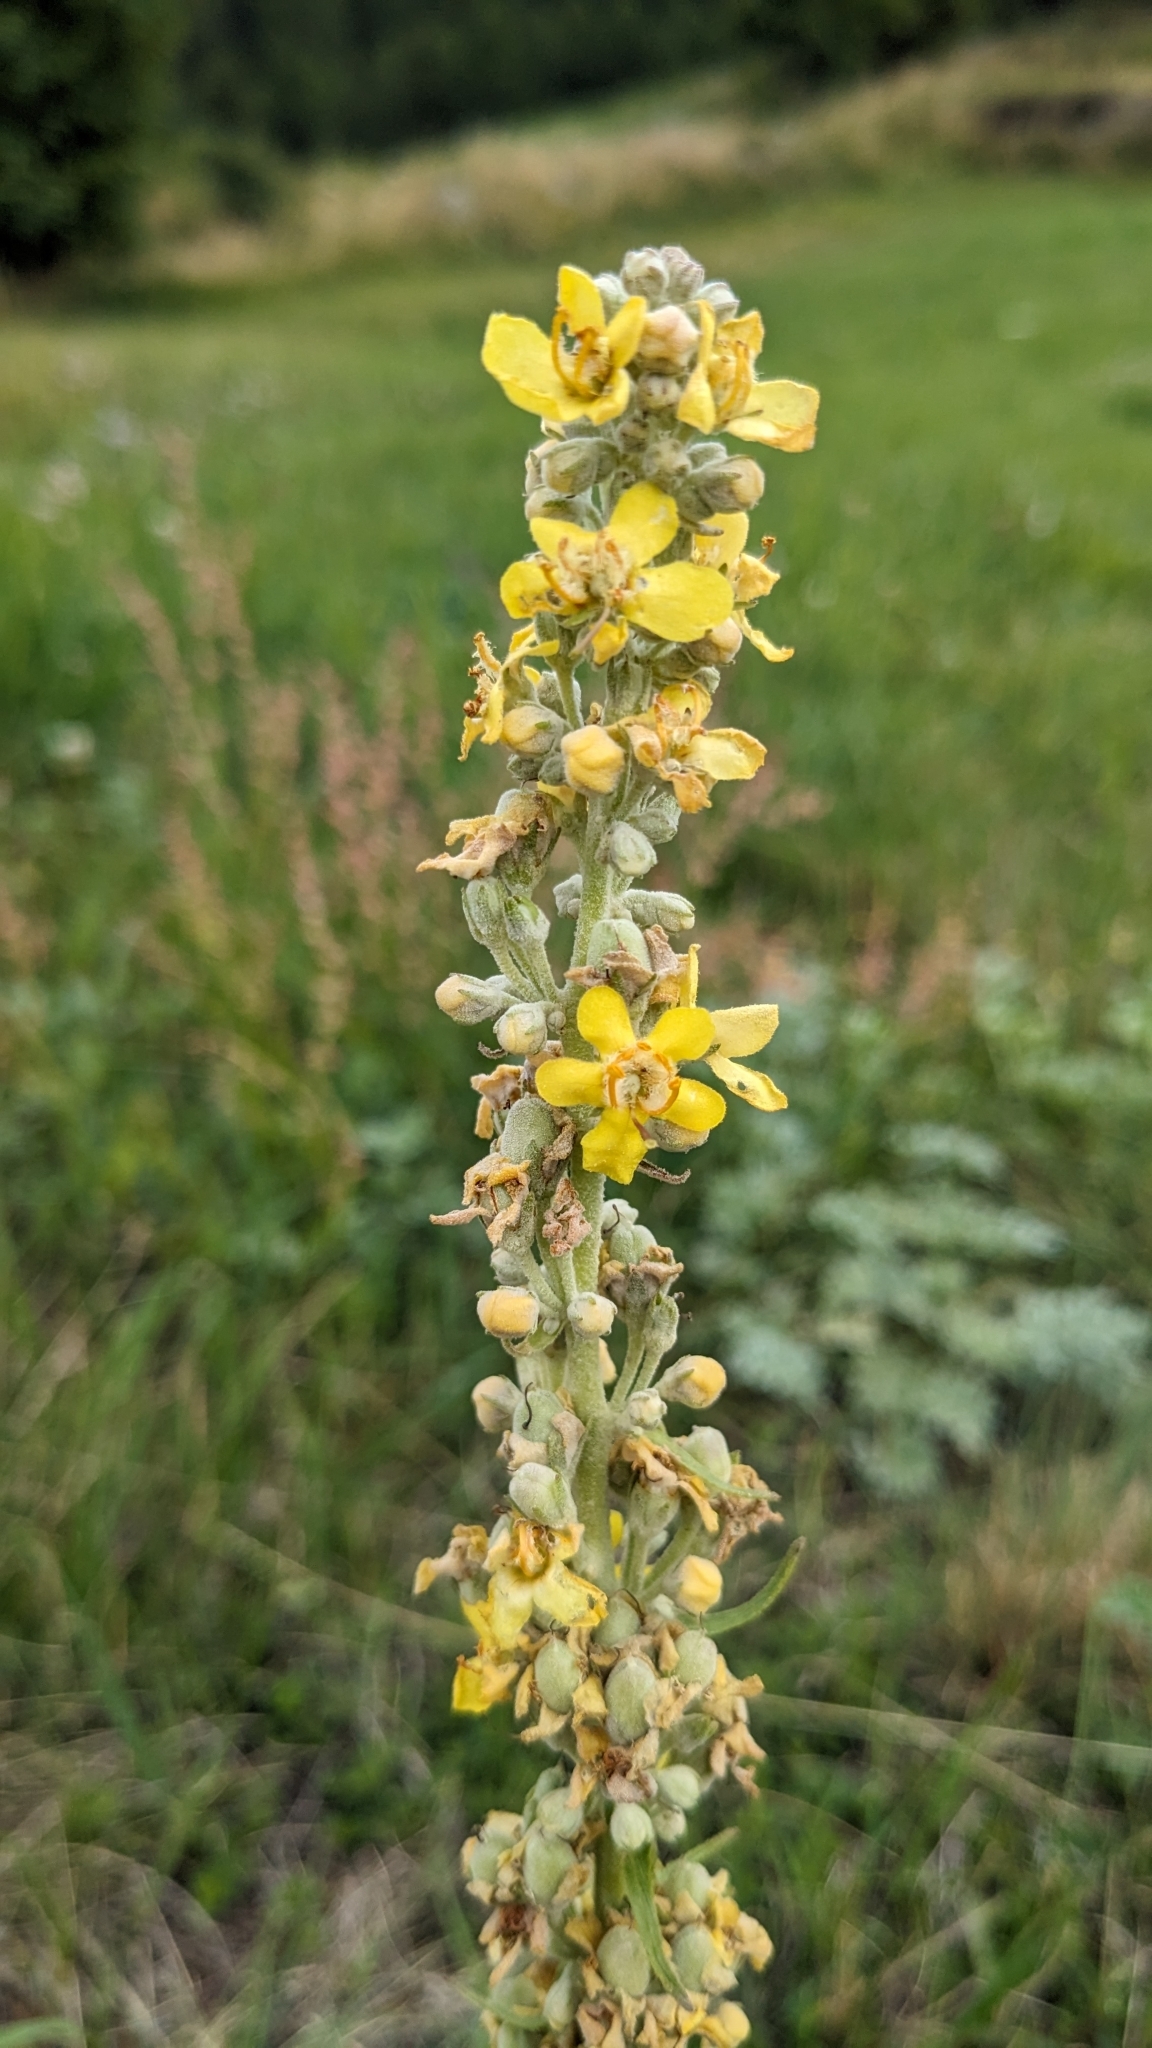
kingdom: Plantae
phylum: Tracheophyta
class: Magnoliopsida
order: Lamiales
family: Scrophulariaceae
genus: Verbascum
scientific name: Verbascum lychnitis
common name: White mullein
